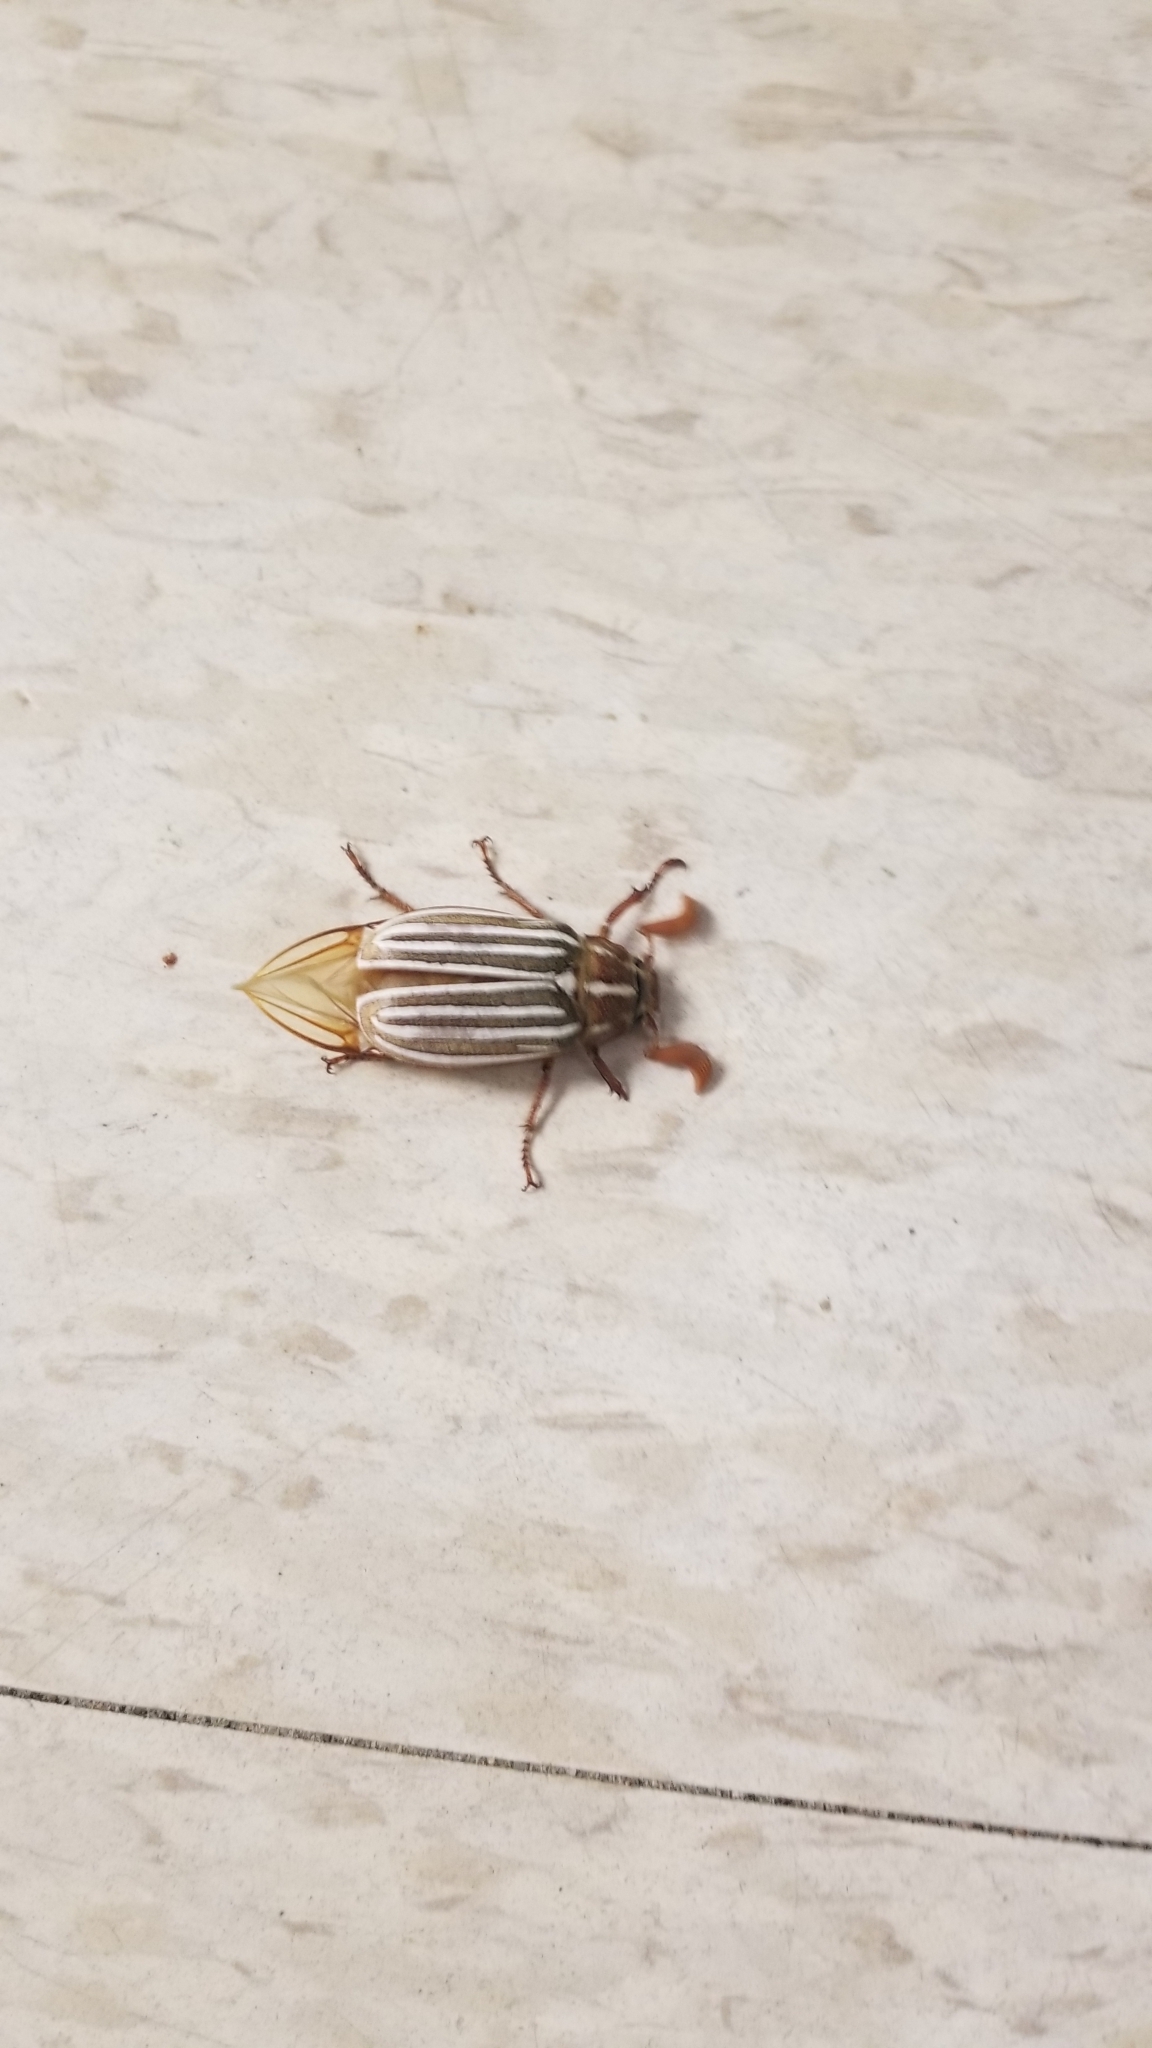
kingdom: Animalia
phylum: Arthropoda
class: Insecta
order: Coleoptera
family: Scarabaeidae
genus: Polyphylla
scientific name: Polyphylla decemlineata
